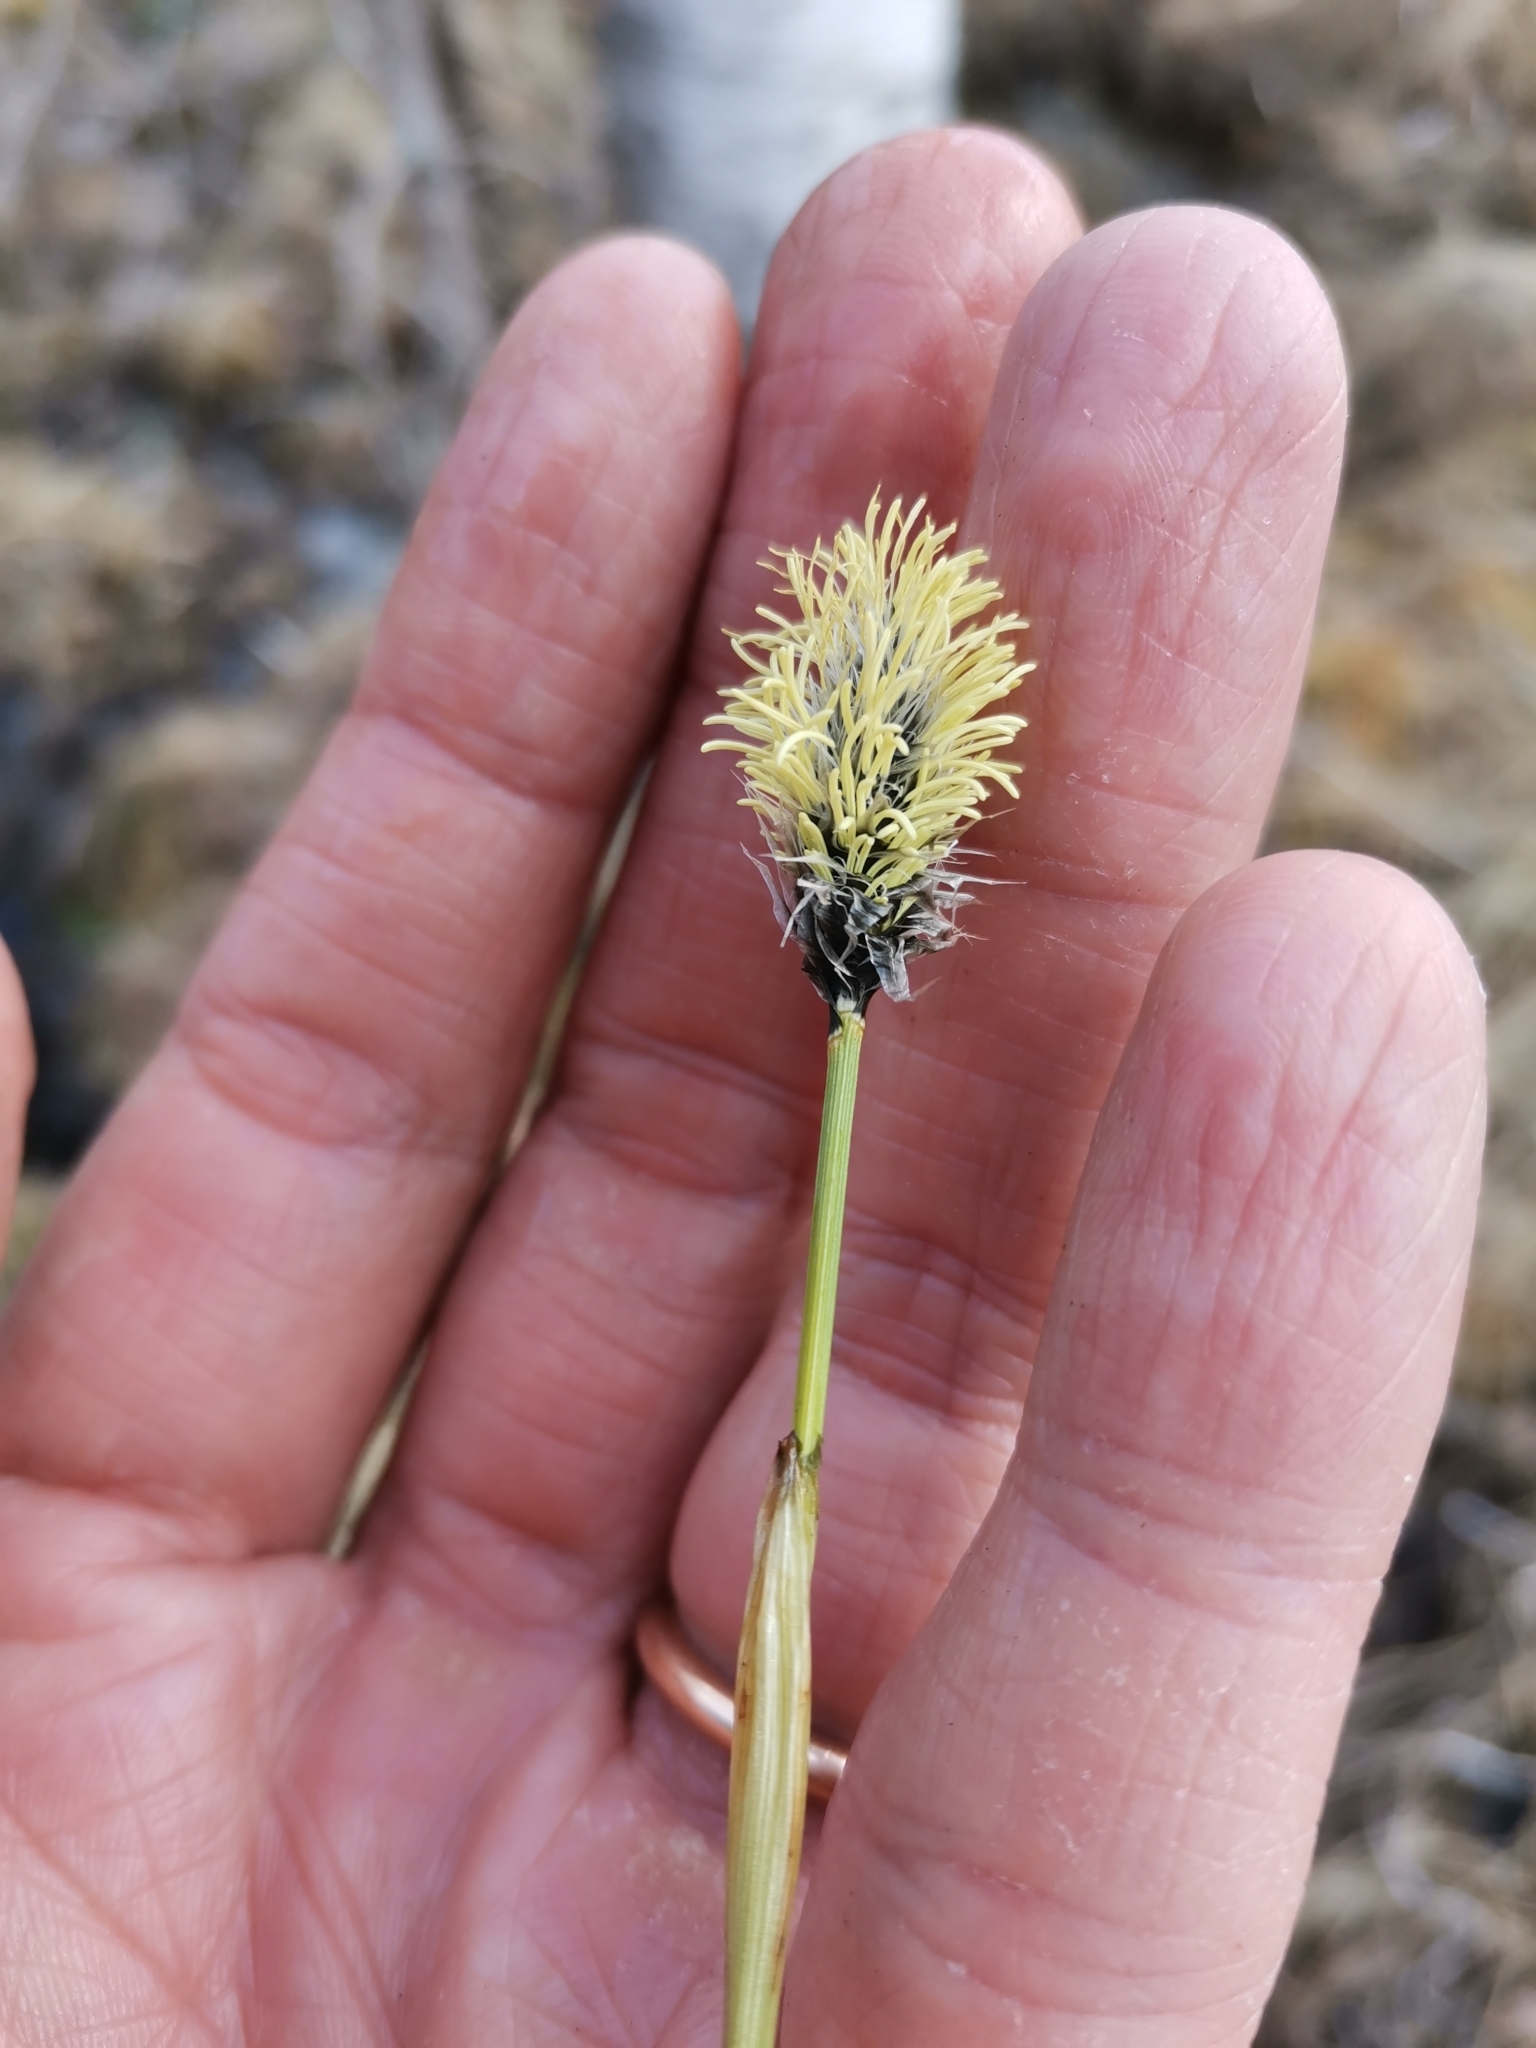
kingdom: Plantae
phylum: Tracheophyta
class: Liliopsida
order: Poales
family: Cyperaceae
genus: Eriophorum
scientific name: Eriophorum vaginatum
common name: Hare's-tail cottongrass
